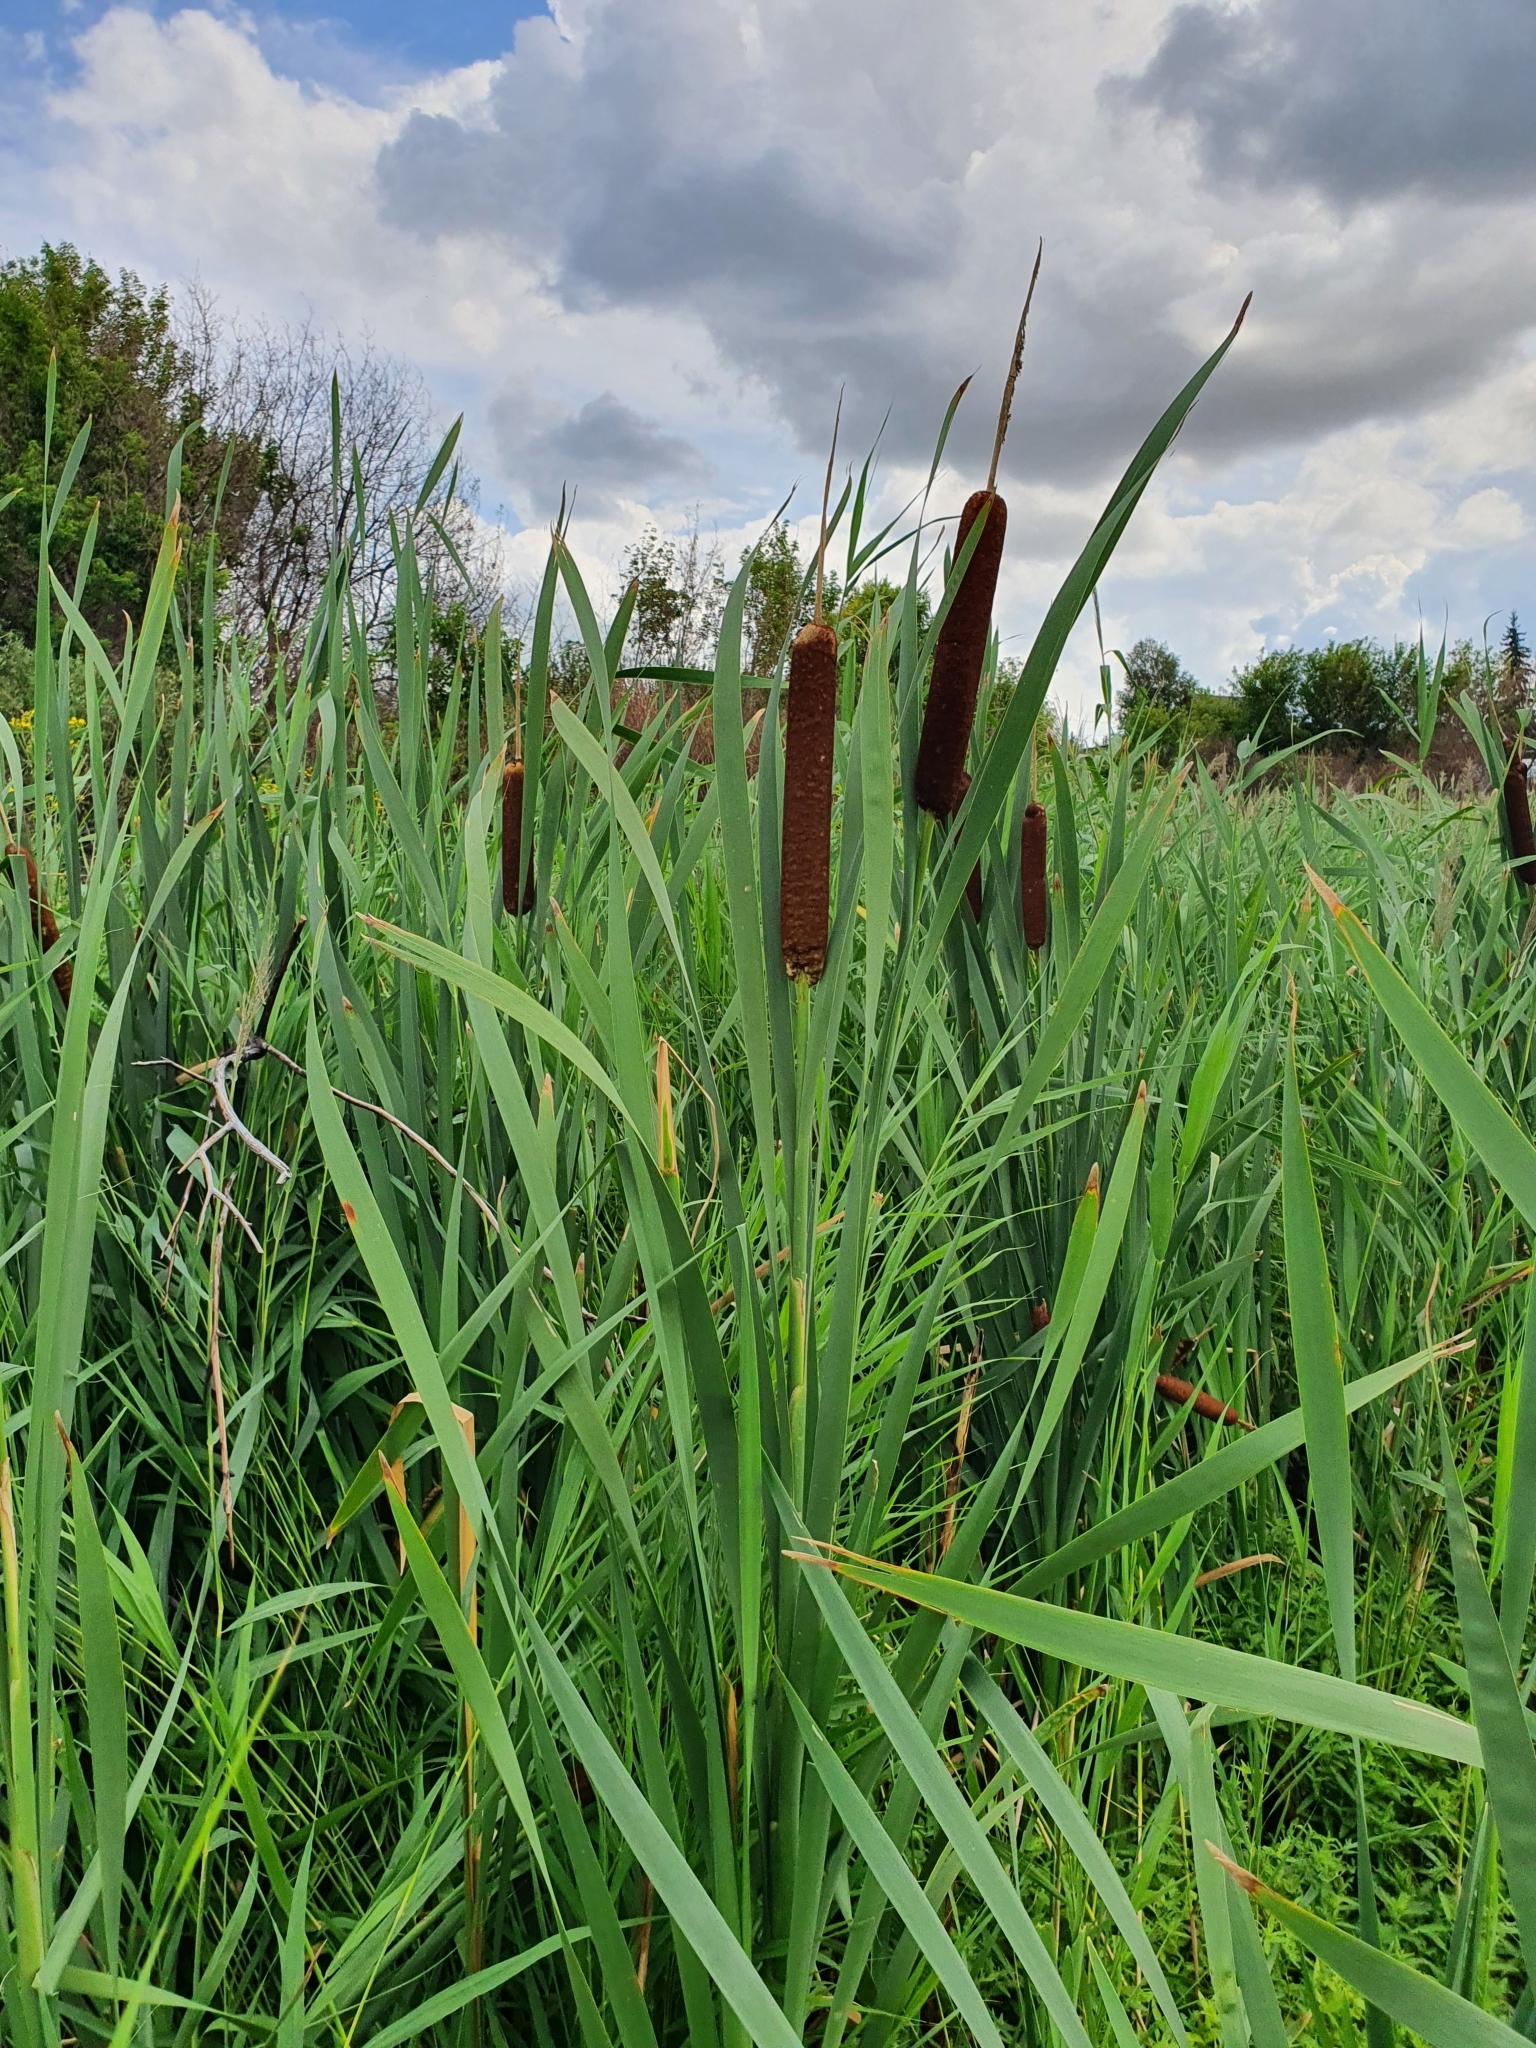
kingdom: Plantae
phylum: Tracheophyta
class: Liliopsida
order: Poales
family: Typhaceae
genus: Typha
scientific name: Typha latifolia
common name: Broadleaf cattail
